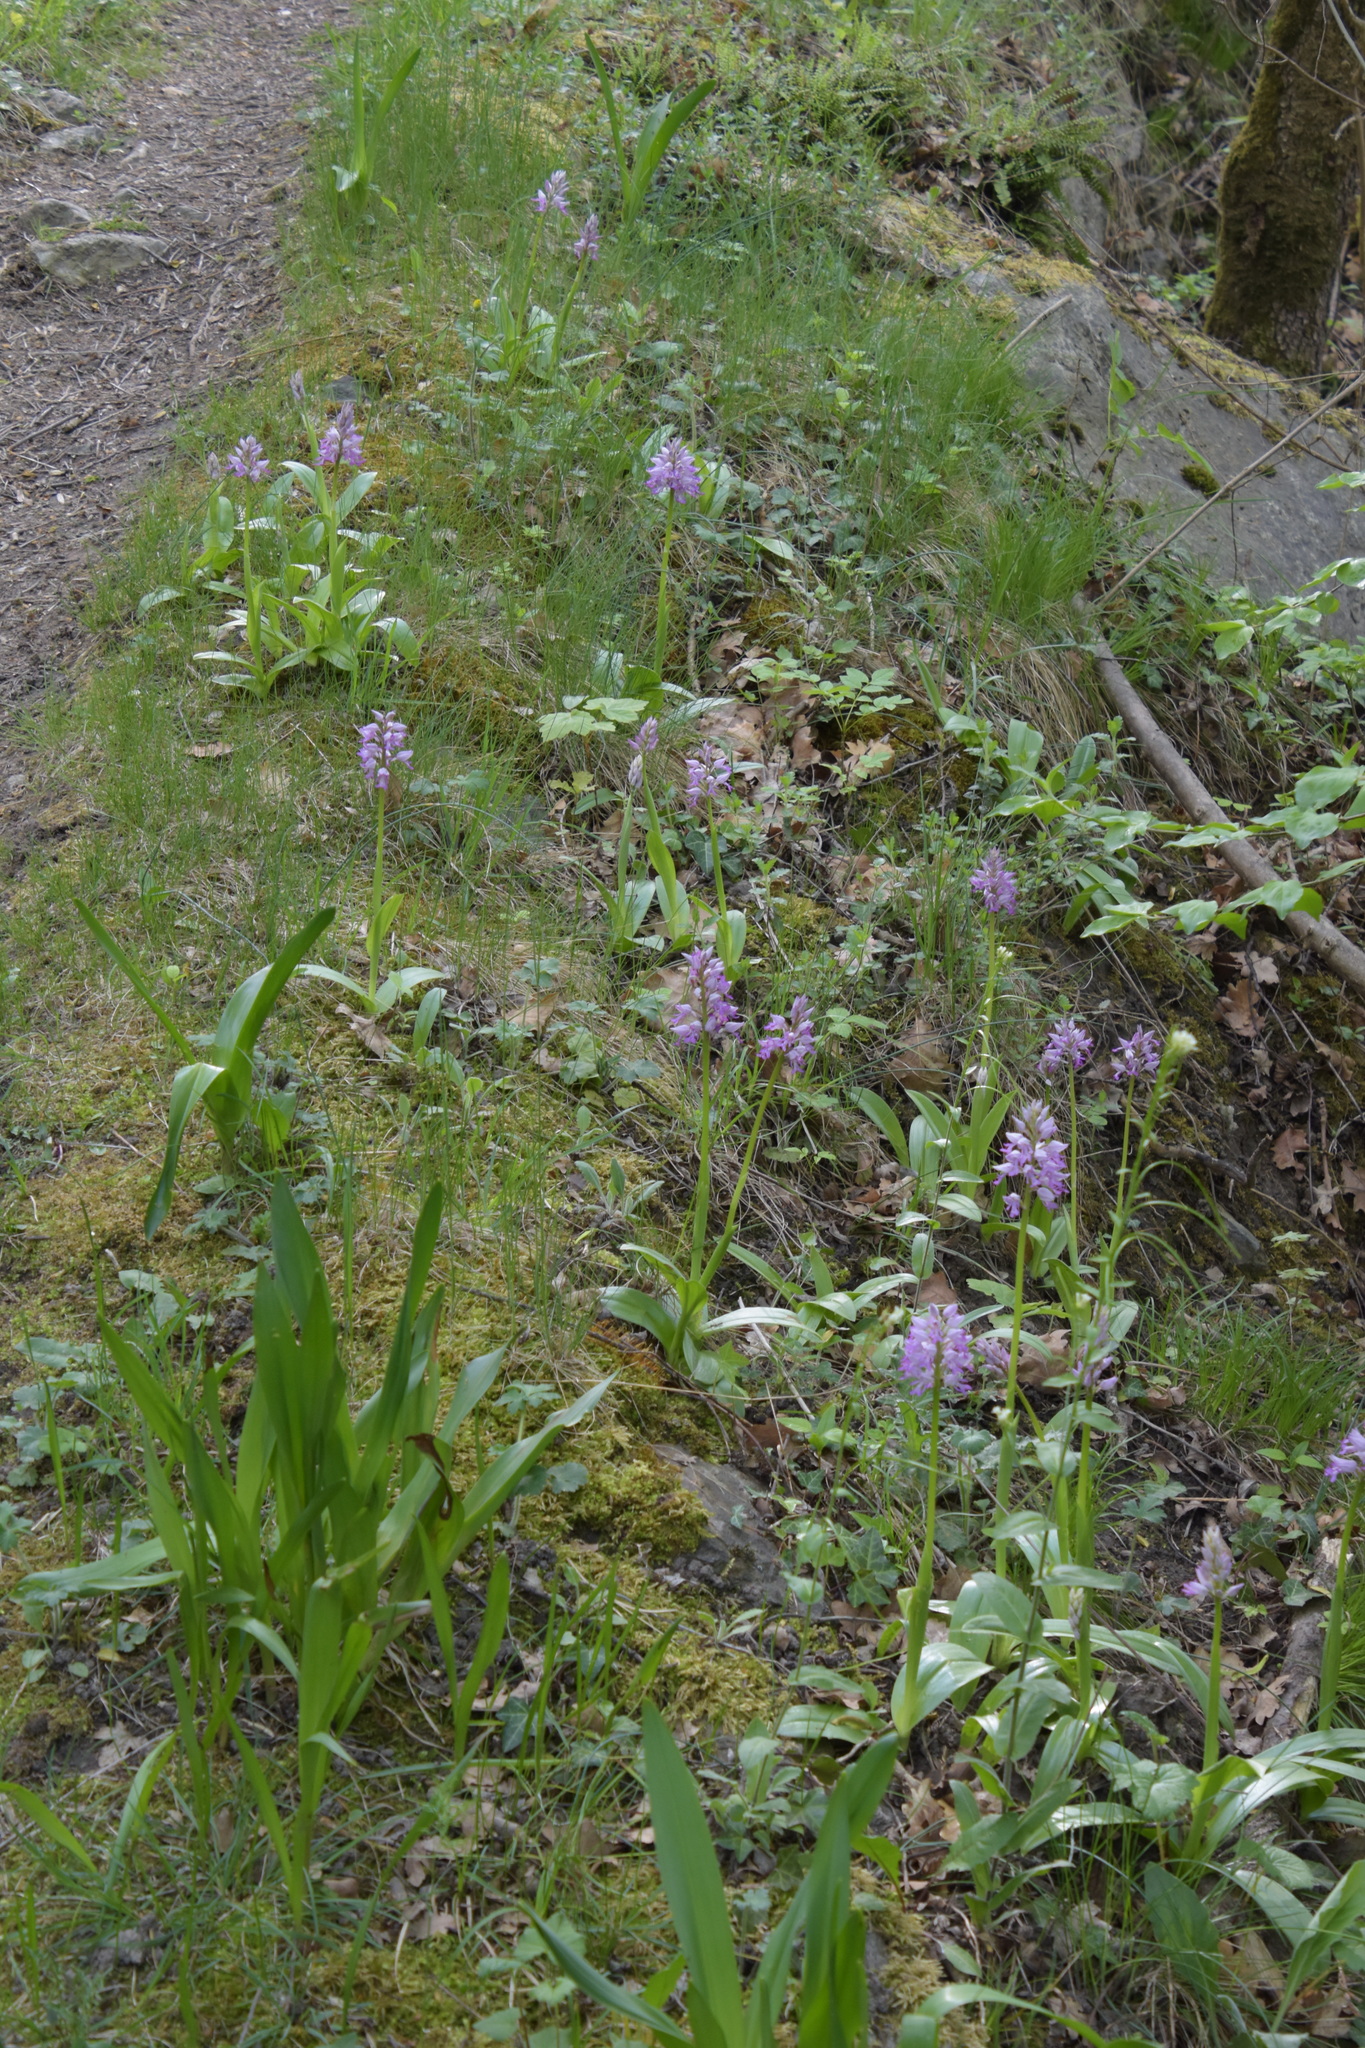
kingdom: Plantae
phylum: Tracheophyta
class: Liliopsida
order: Asparagales
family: Orchidaceae
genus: Orchis
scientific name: Orchis militaris
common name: Military orchid
